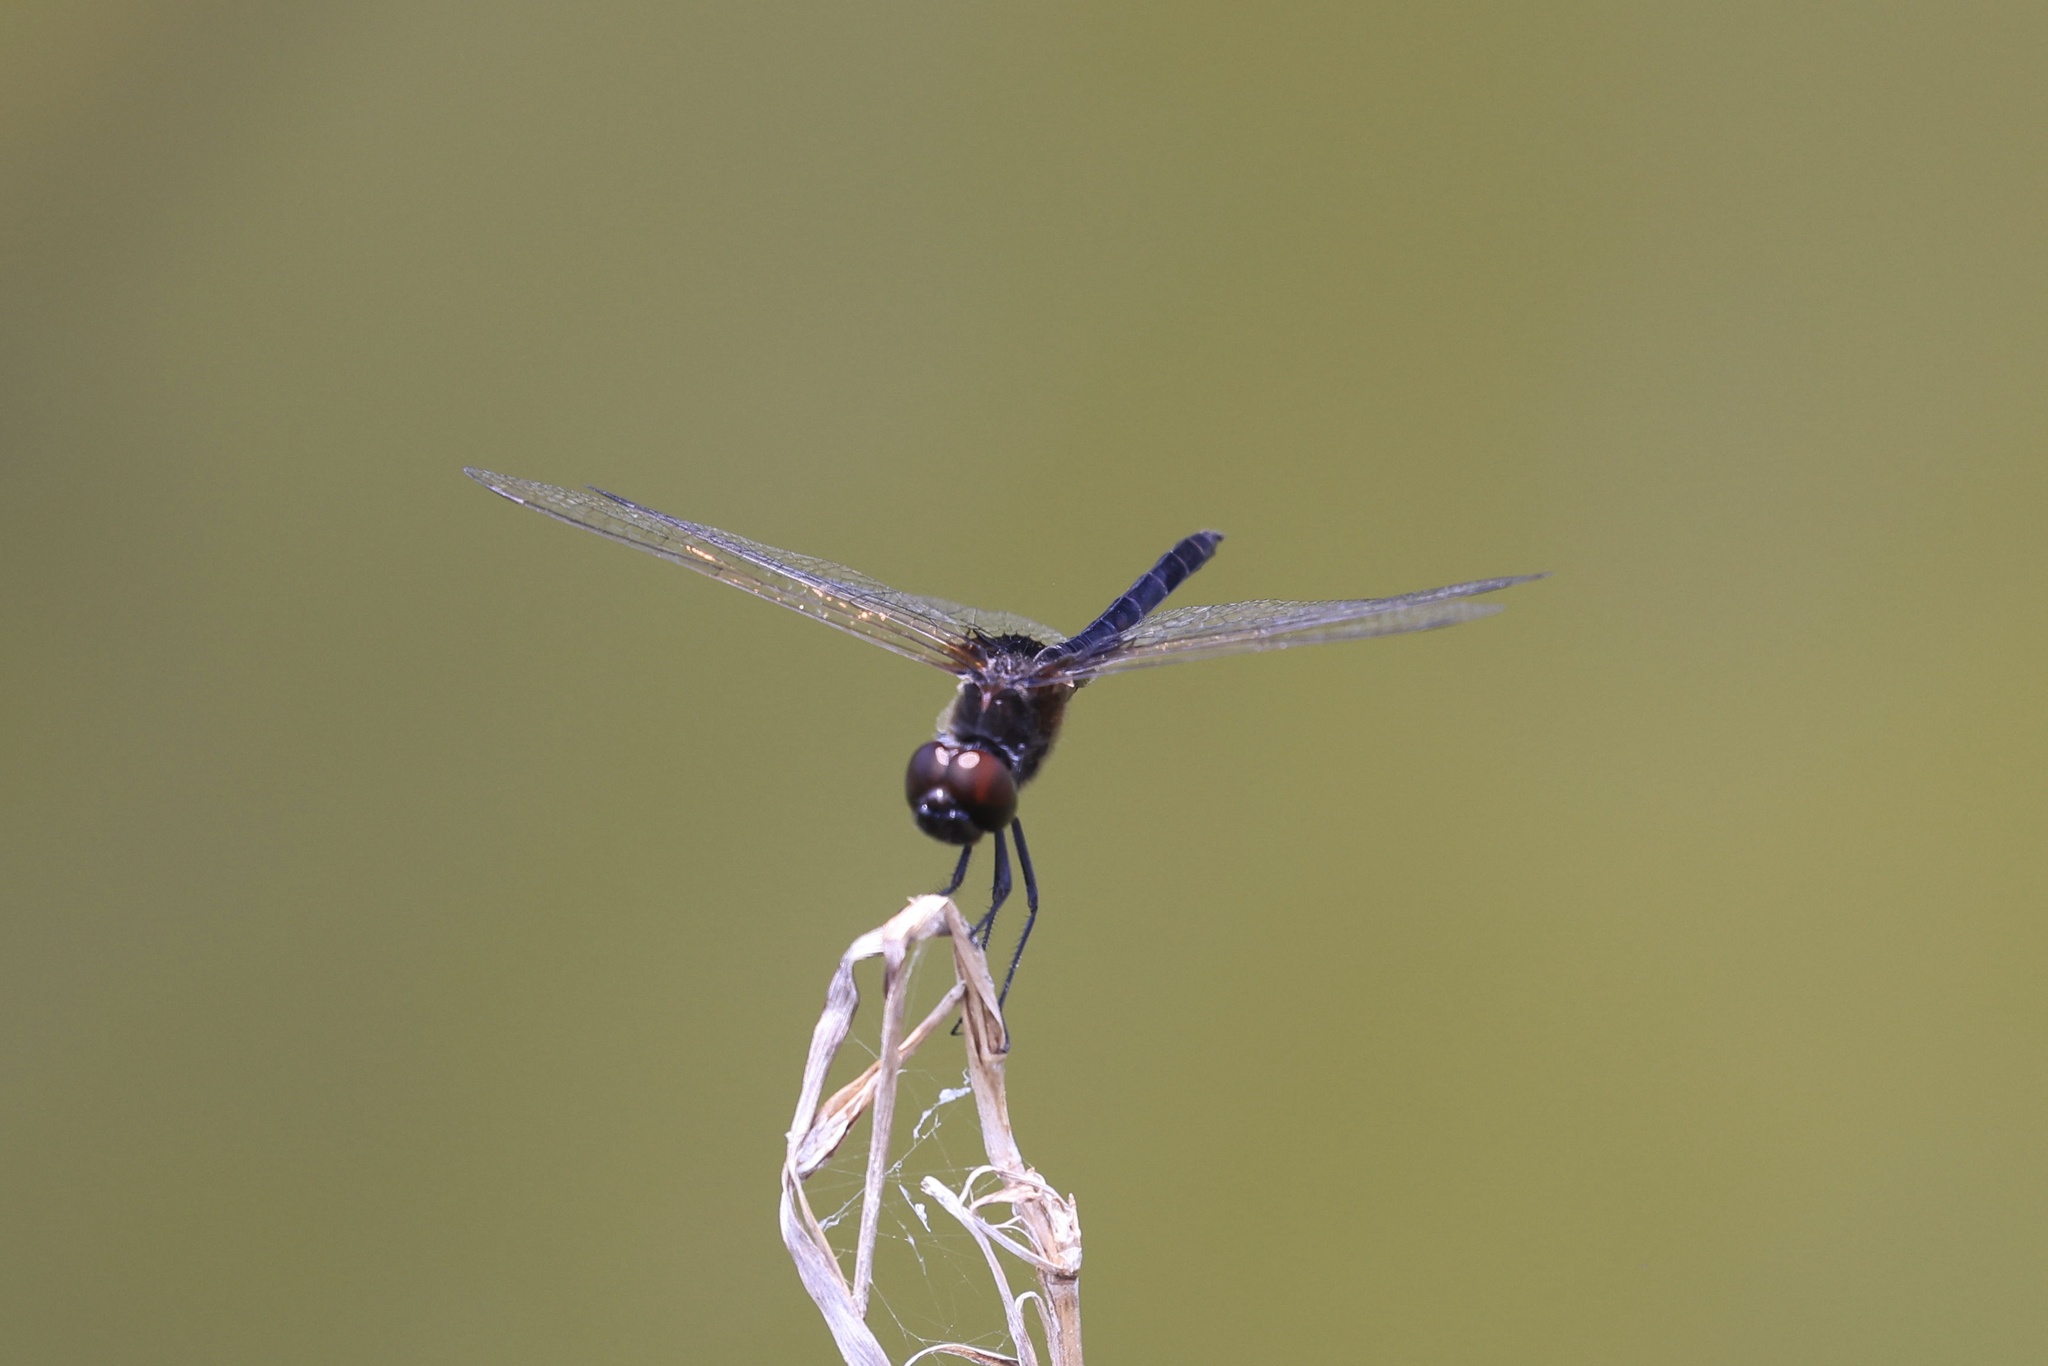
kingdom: Animalia
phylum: Arthropoda
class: Insecta
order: Odonata
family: Libellulidae
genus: Macrodiplax
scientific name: Macrodiplax balteata
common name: Marl pennant
